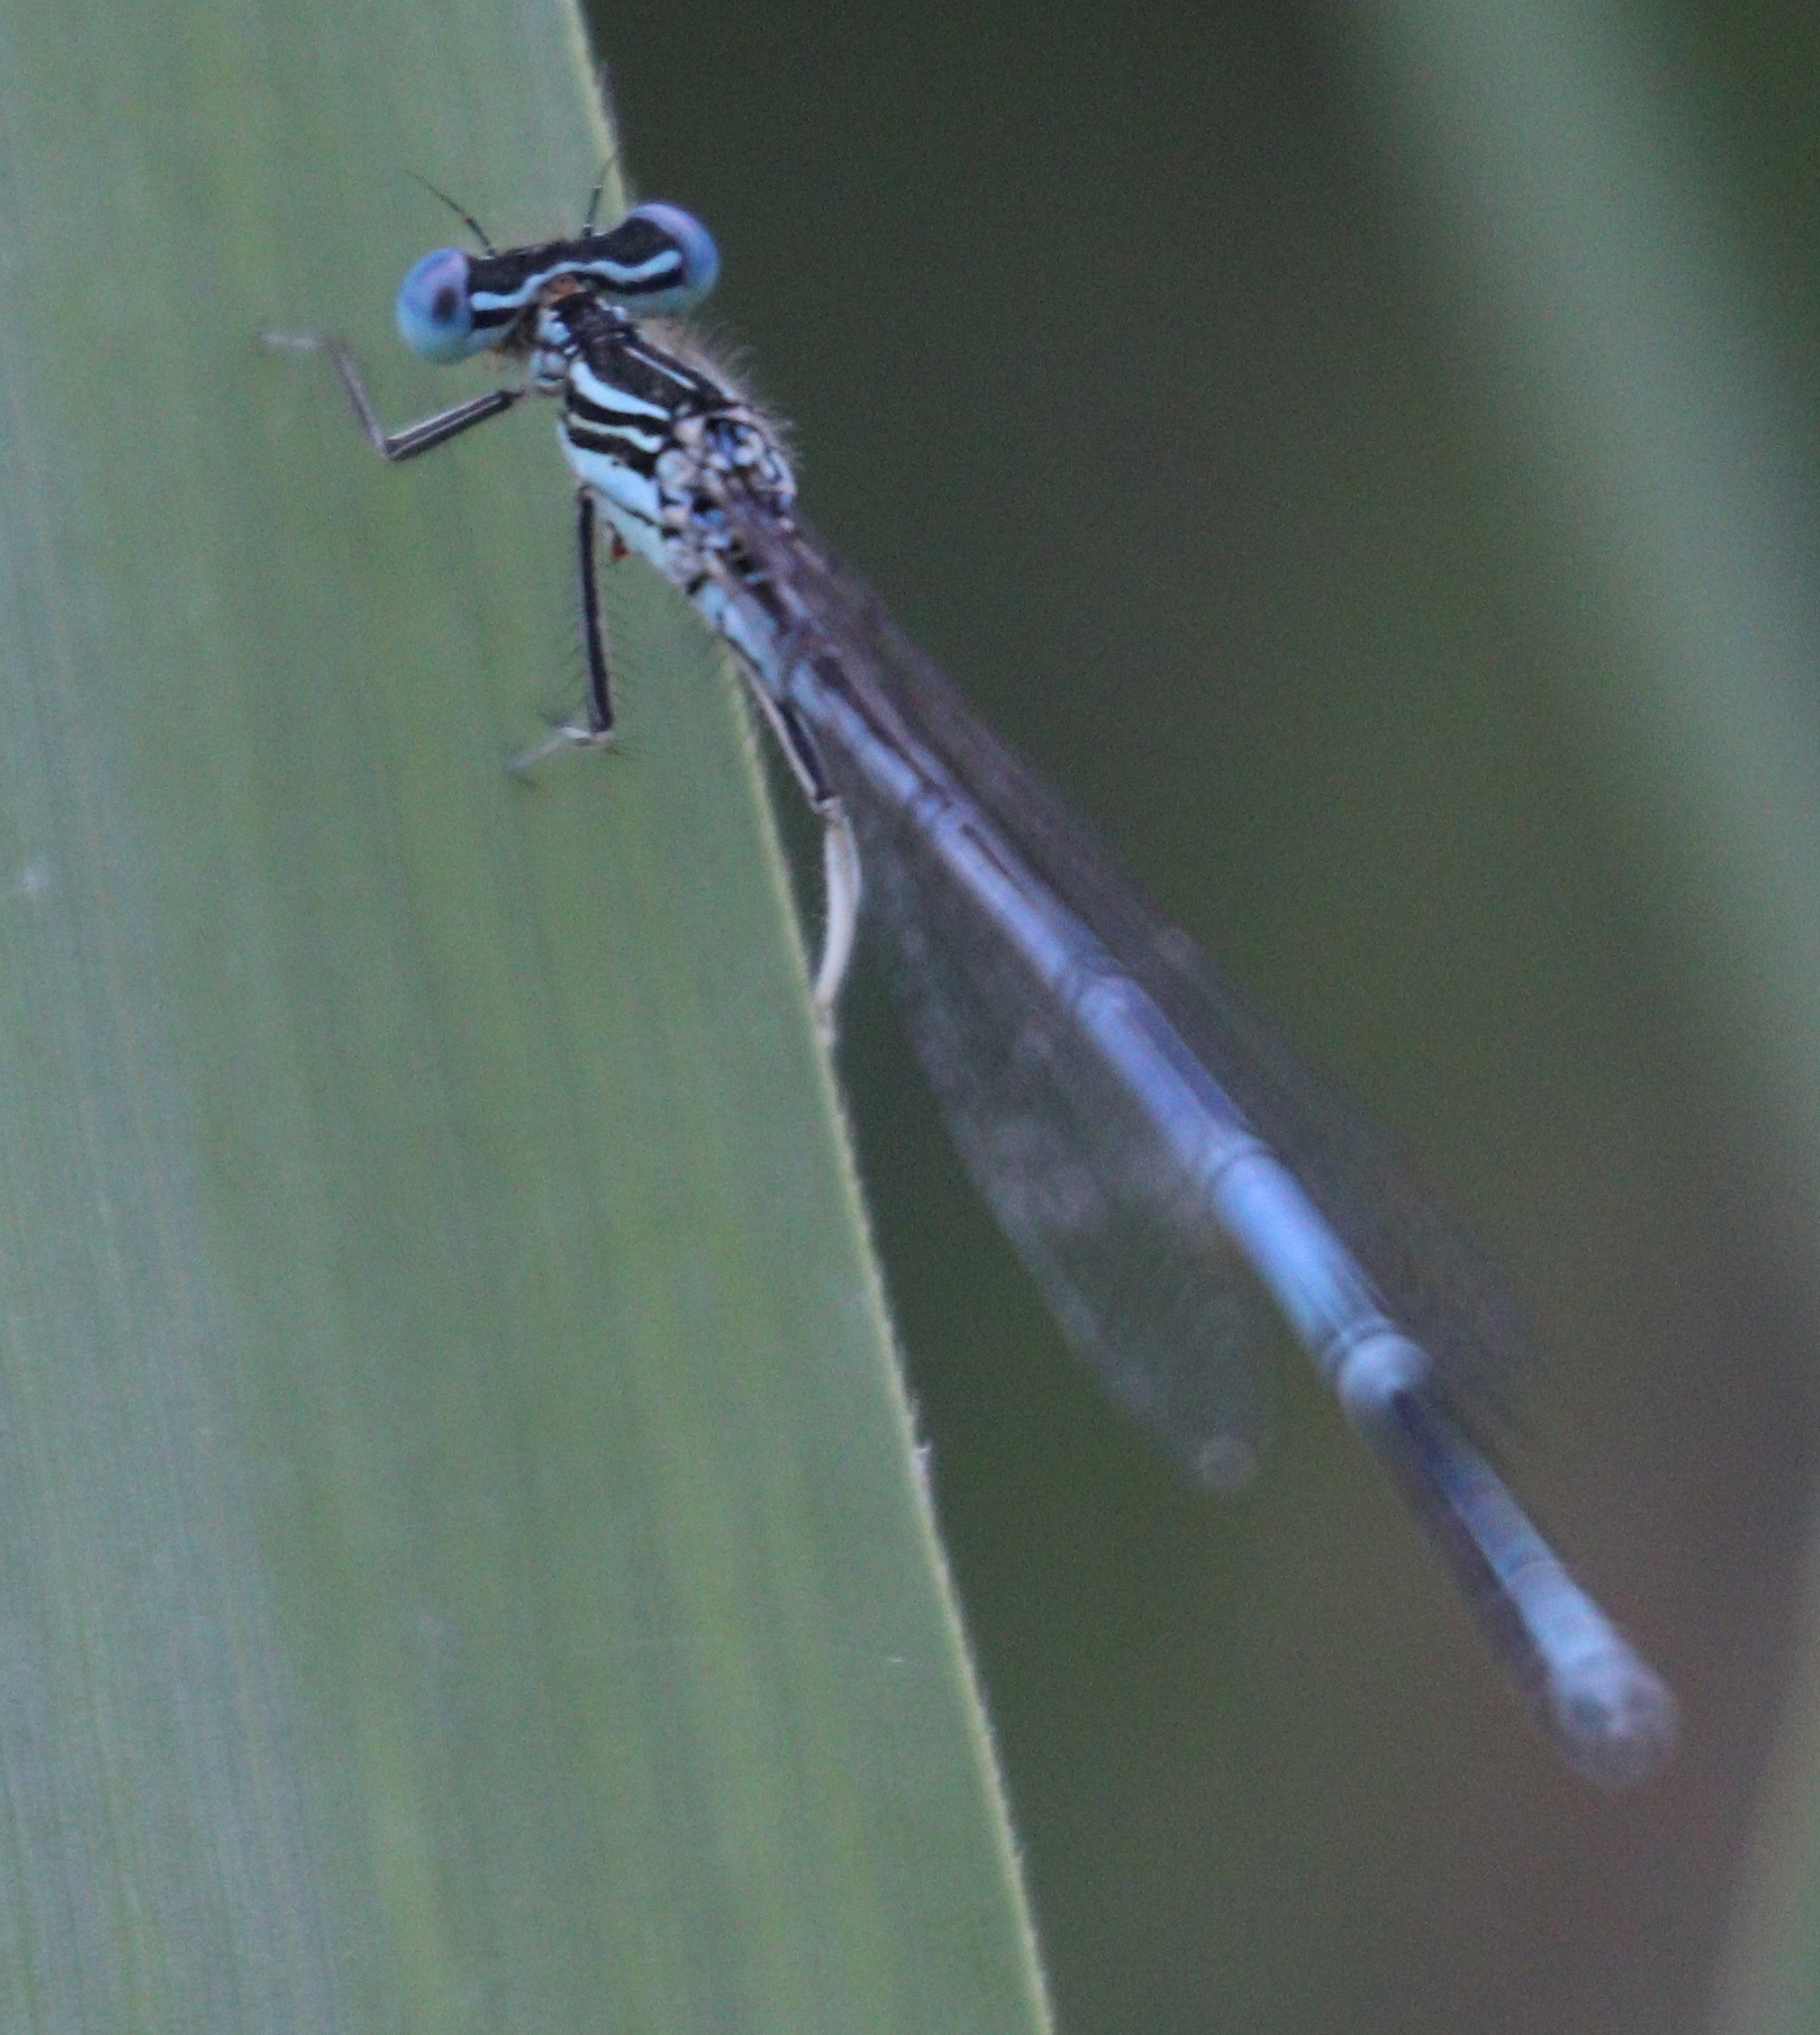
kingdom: Animalia
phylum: Arthropoda
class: Insecta
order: Odonata
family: Platycnemididae
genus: Platycnemis
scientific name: Platycnemis pennipes
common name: White-legged damselfly
